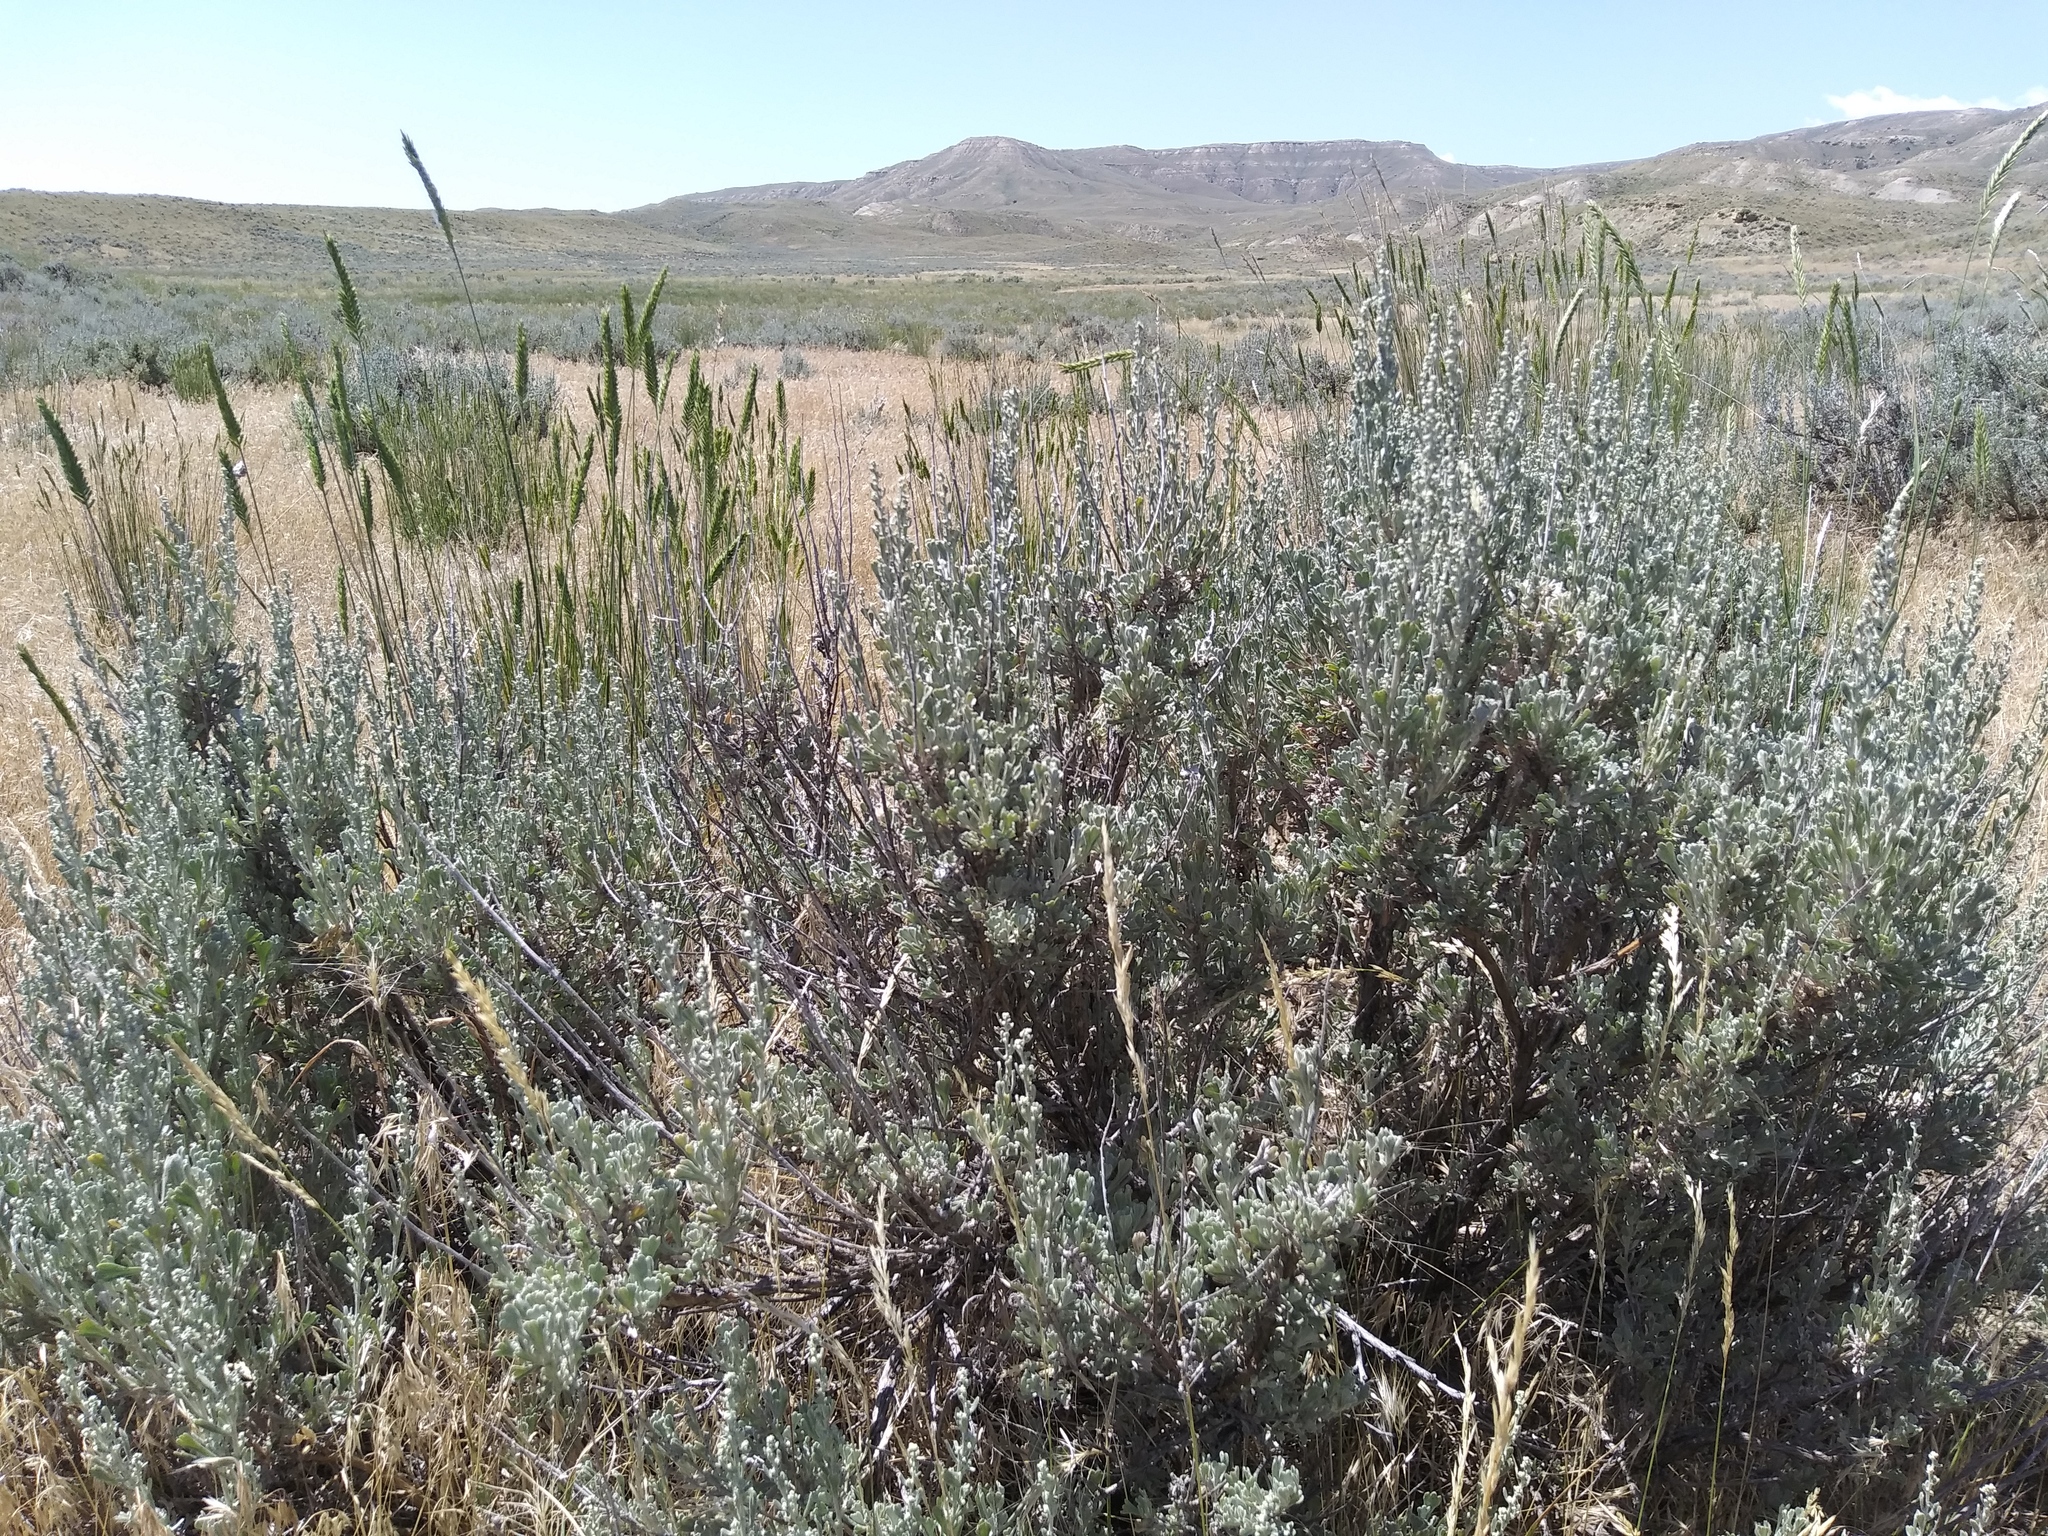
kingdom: Plantae
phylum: Tracheophyta
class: Magnoliopsida
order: Asterales
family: Asteraceae
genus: Artemisia
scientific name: Artemisia tridentata
